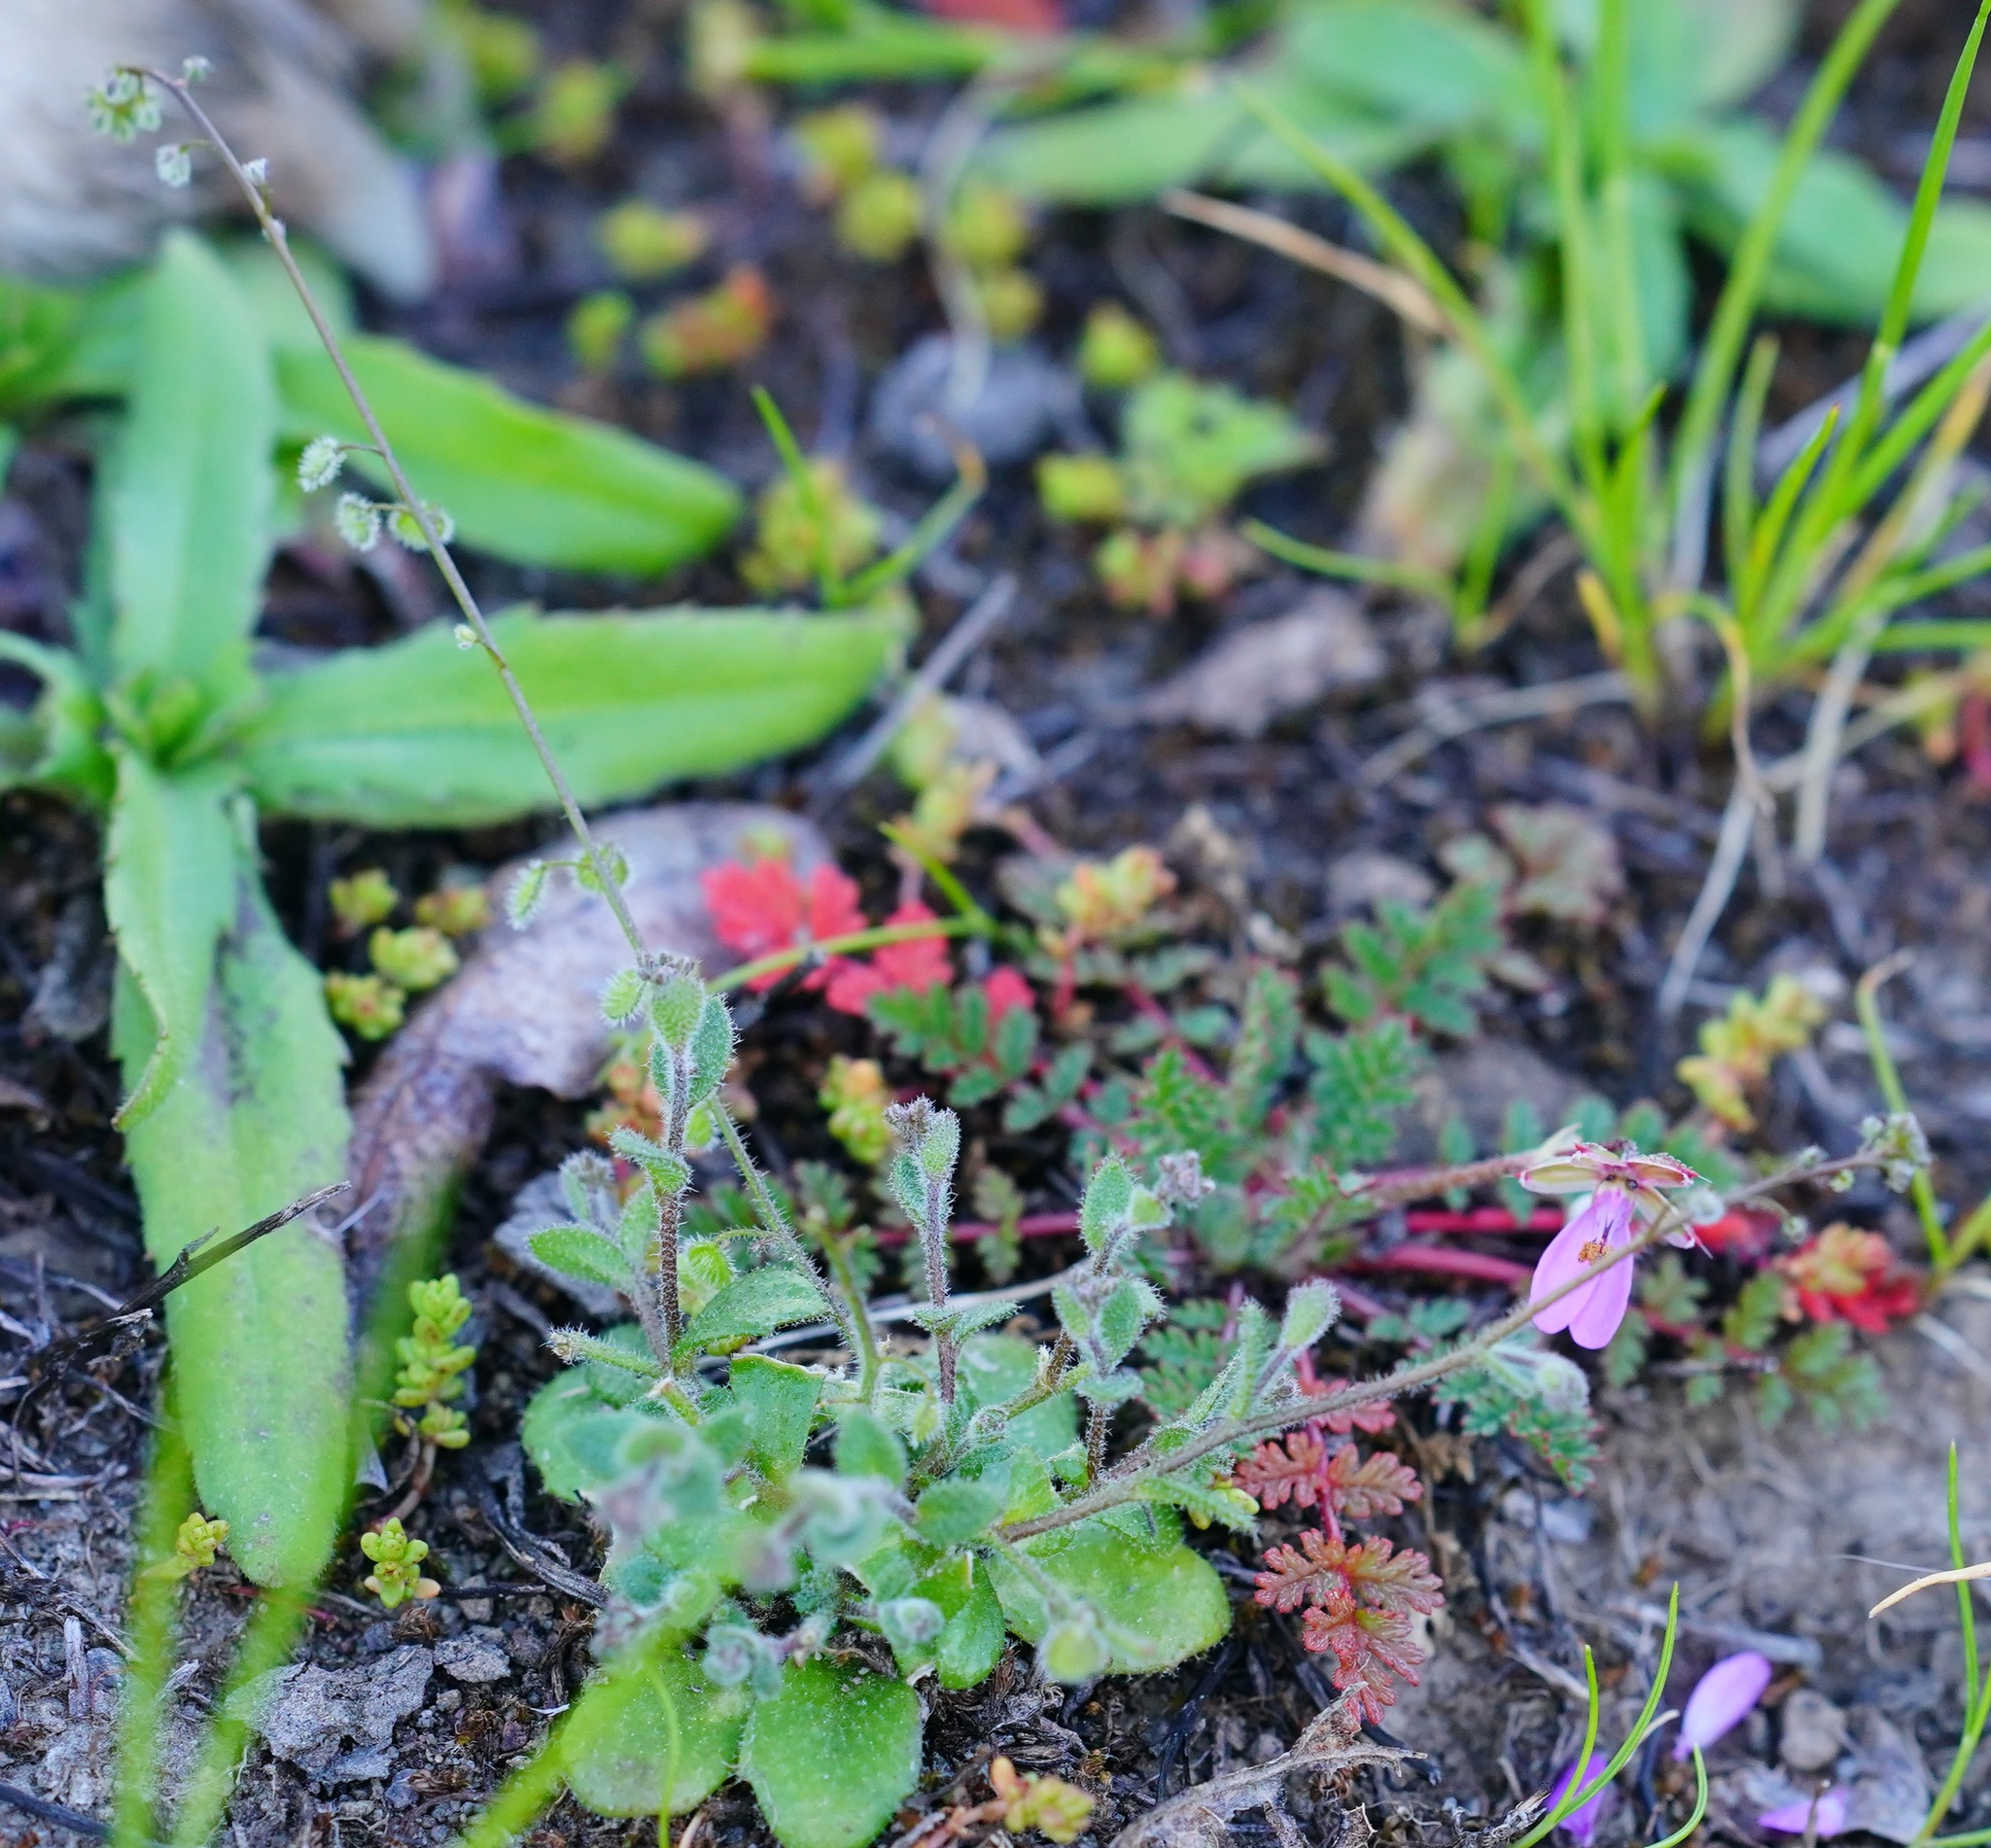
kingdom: Plantae
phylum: Tracheophyta
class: Magnoliopsida
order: Brassicales
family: Brassicaceae
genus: Athysanus
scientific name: Athysanus pusillus
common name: Common sandweed
